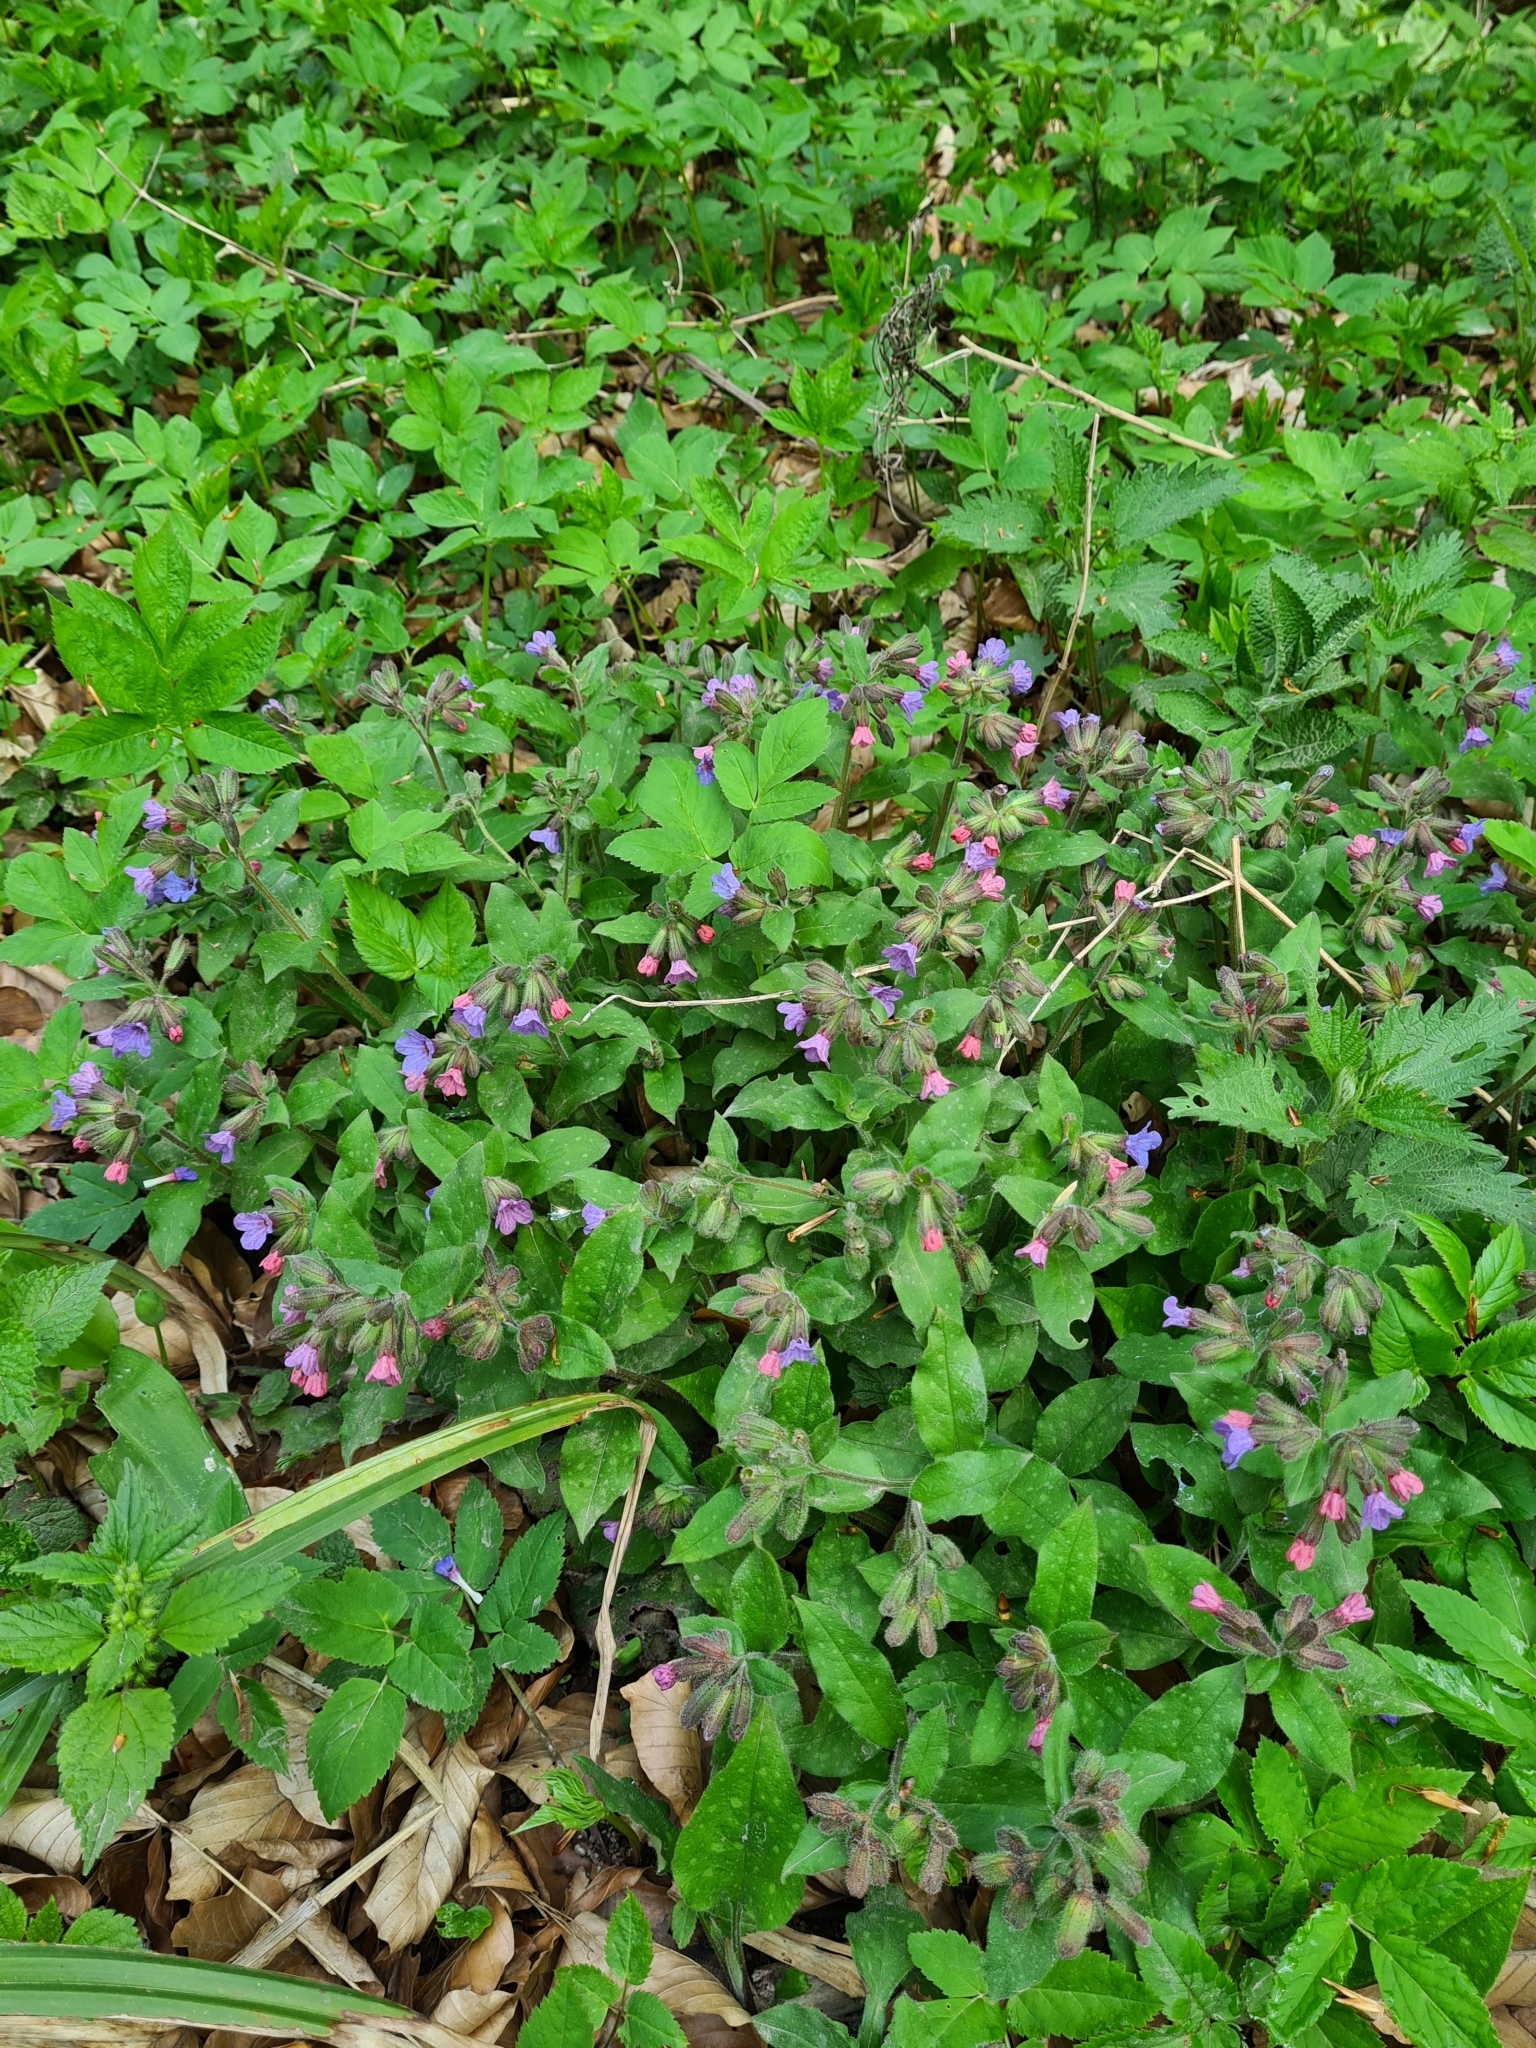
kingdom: Plantae
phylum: Tracheophyta
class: Magnoliopsida
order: Boraginales
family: Boraginaceae
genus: Pulmonaria
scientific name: Pulmonaria officinalis
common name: Lungwort
